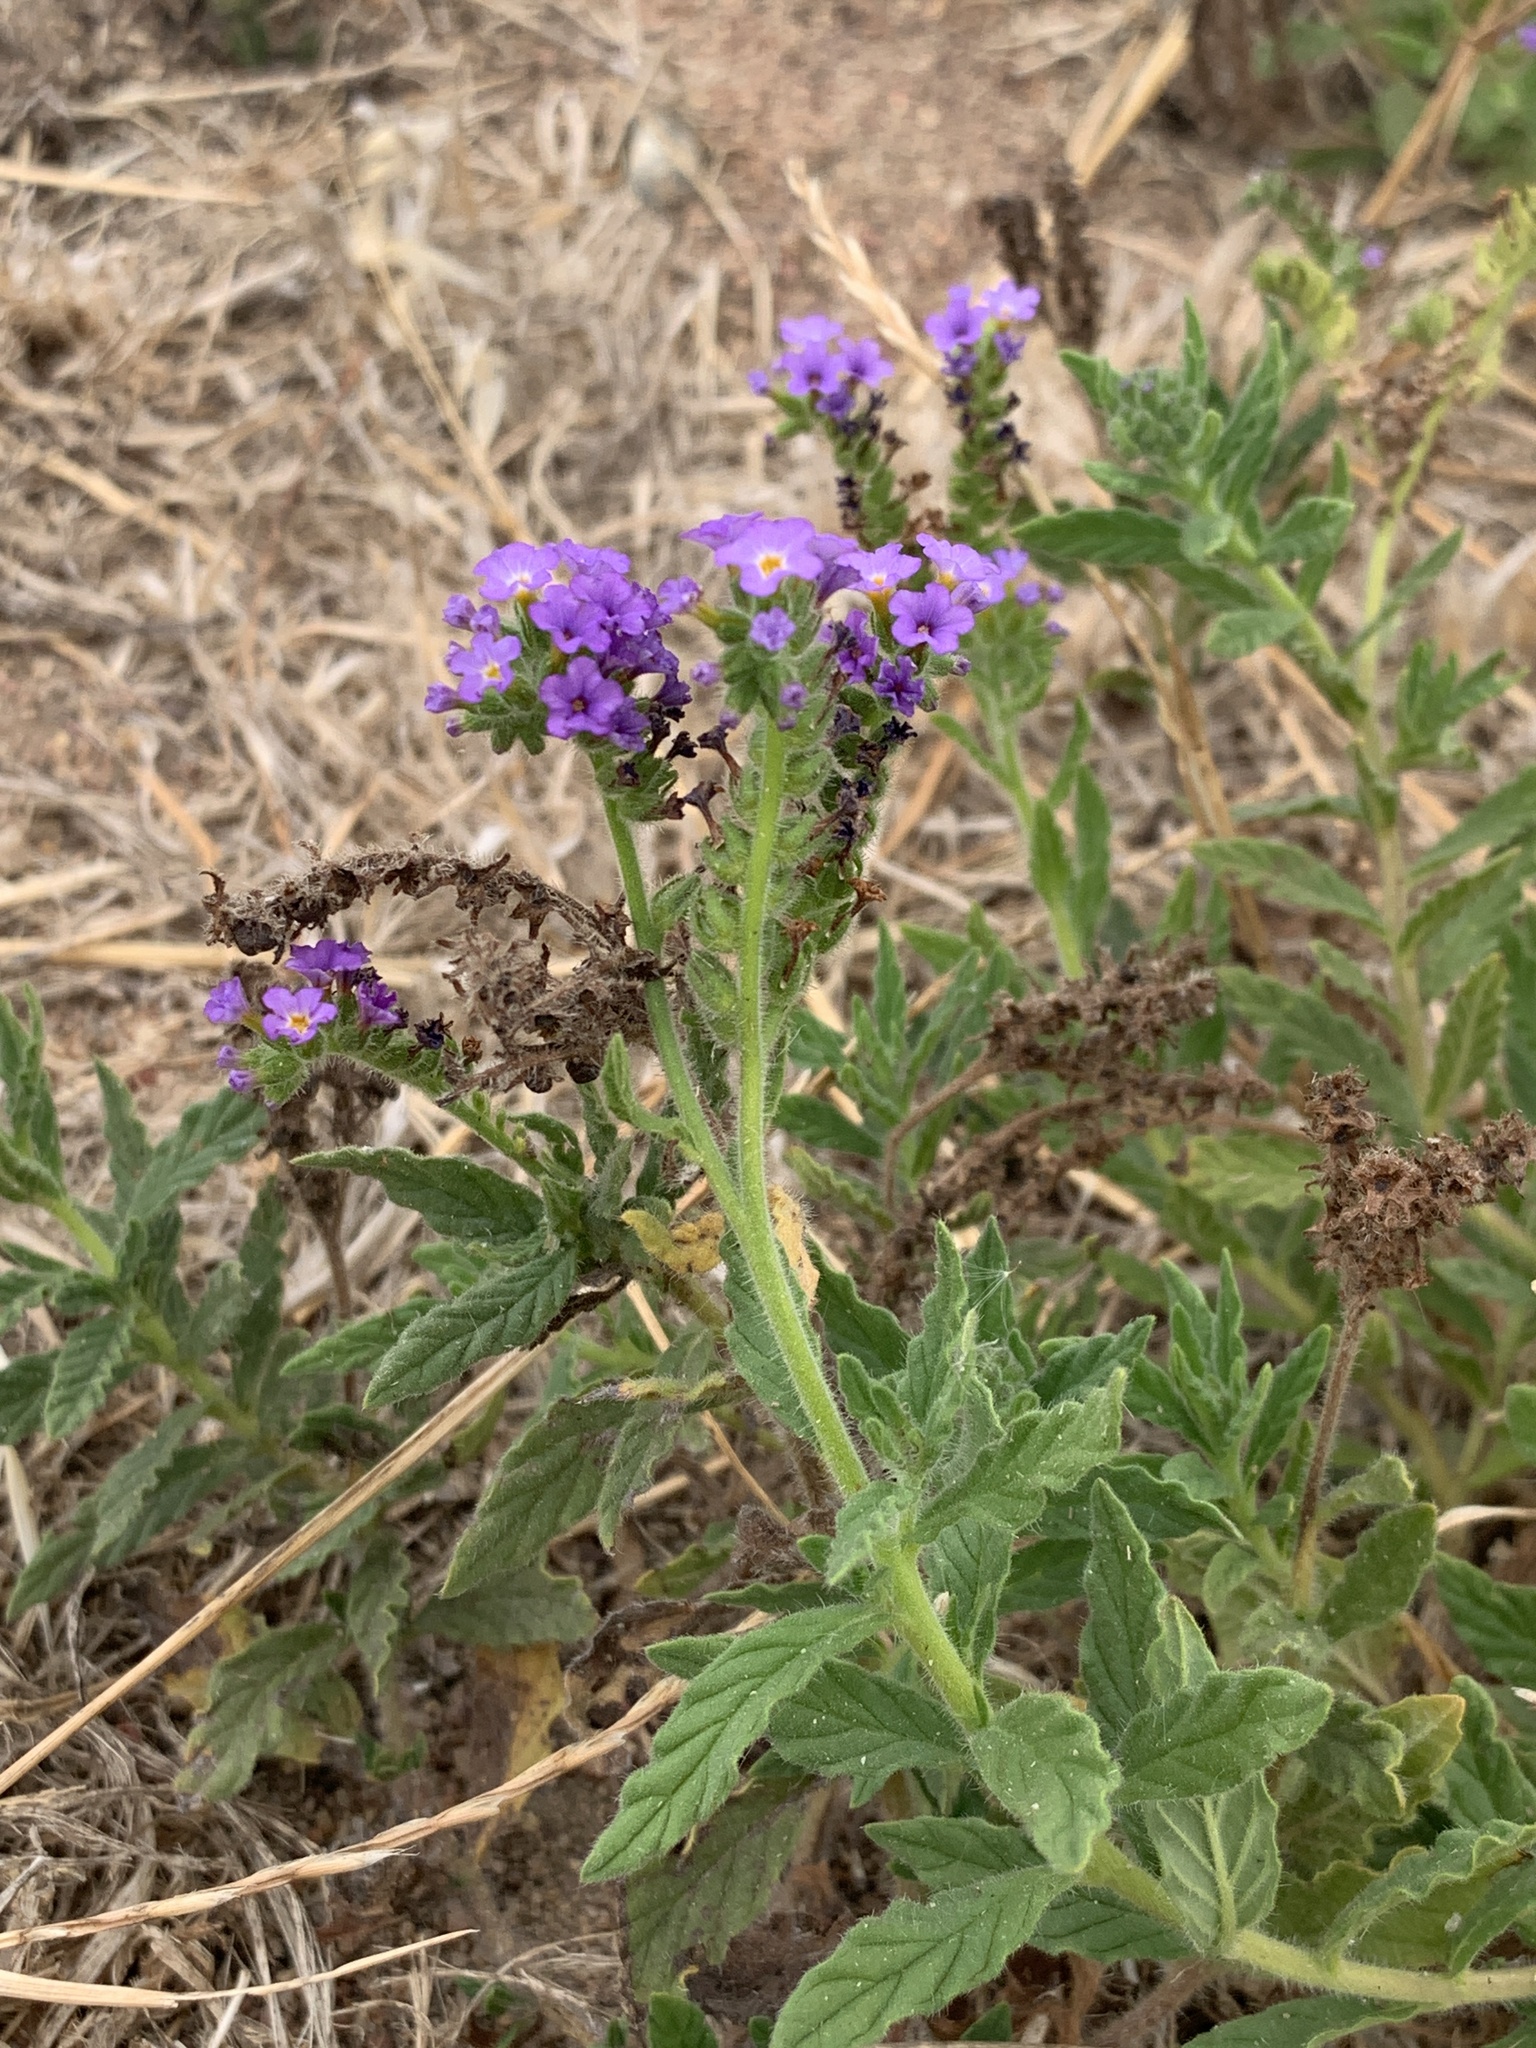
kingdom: Plantae
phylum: Tracheophyta
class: Magnoliopsida
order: Boraginales
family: Heliotropiaceae
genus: Heliotropium
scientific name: Heliotropium amplexicaule
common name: Clasping heliotrope
